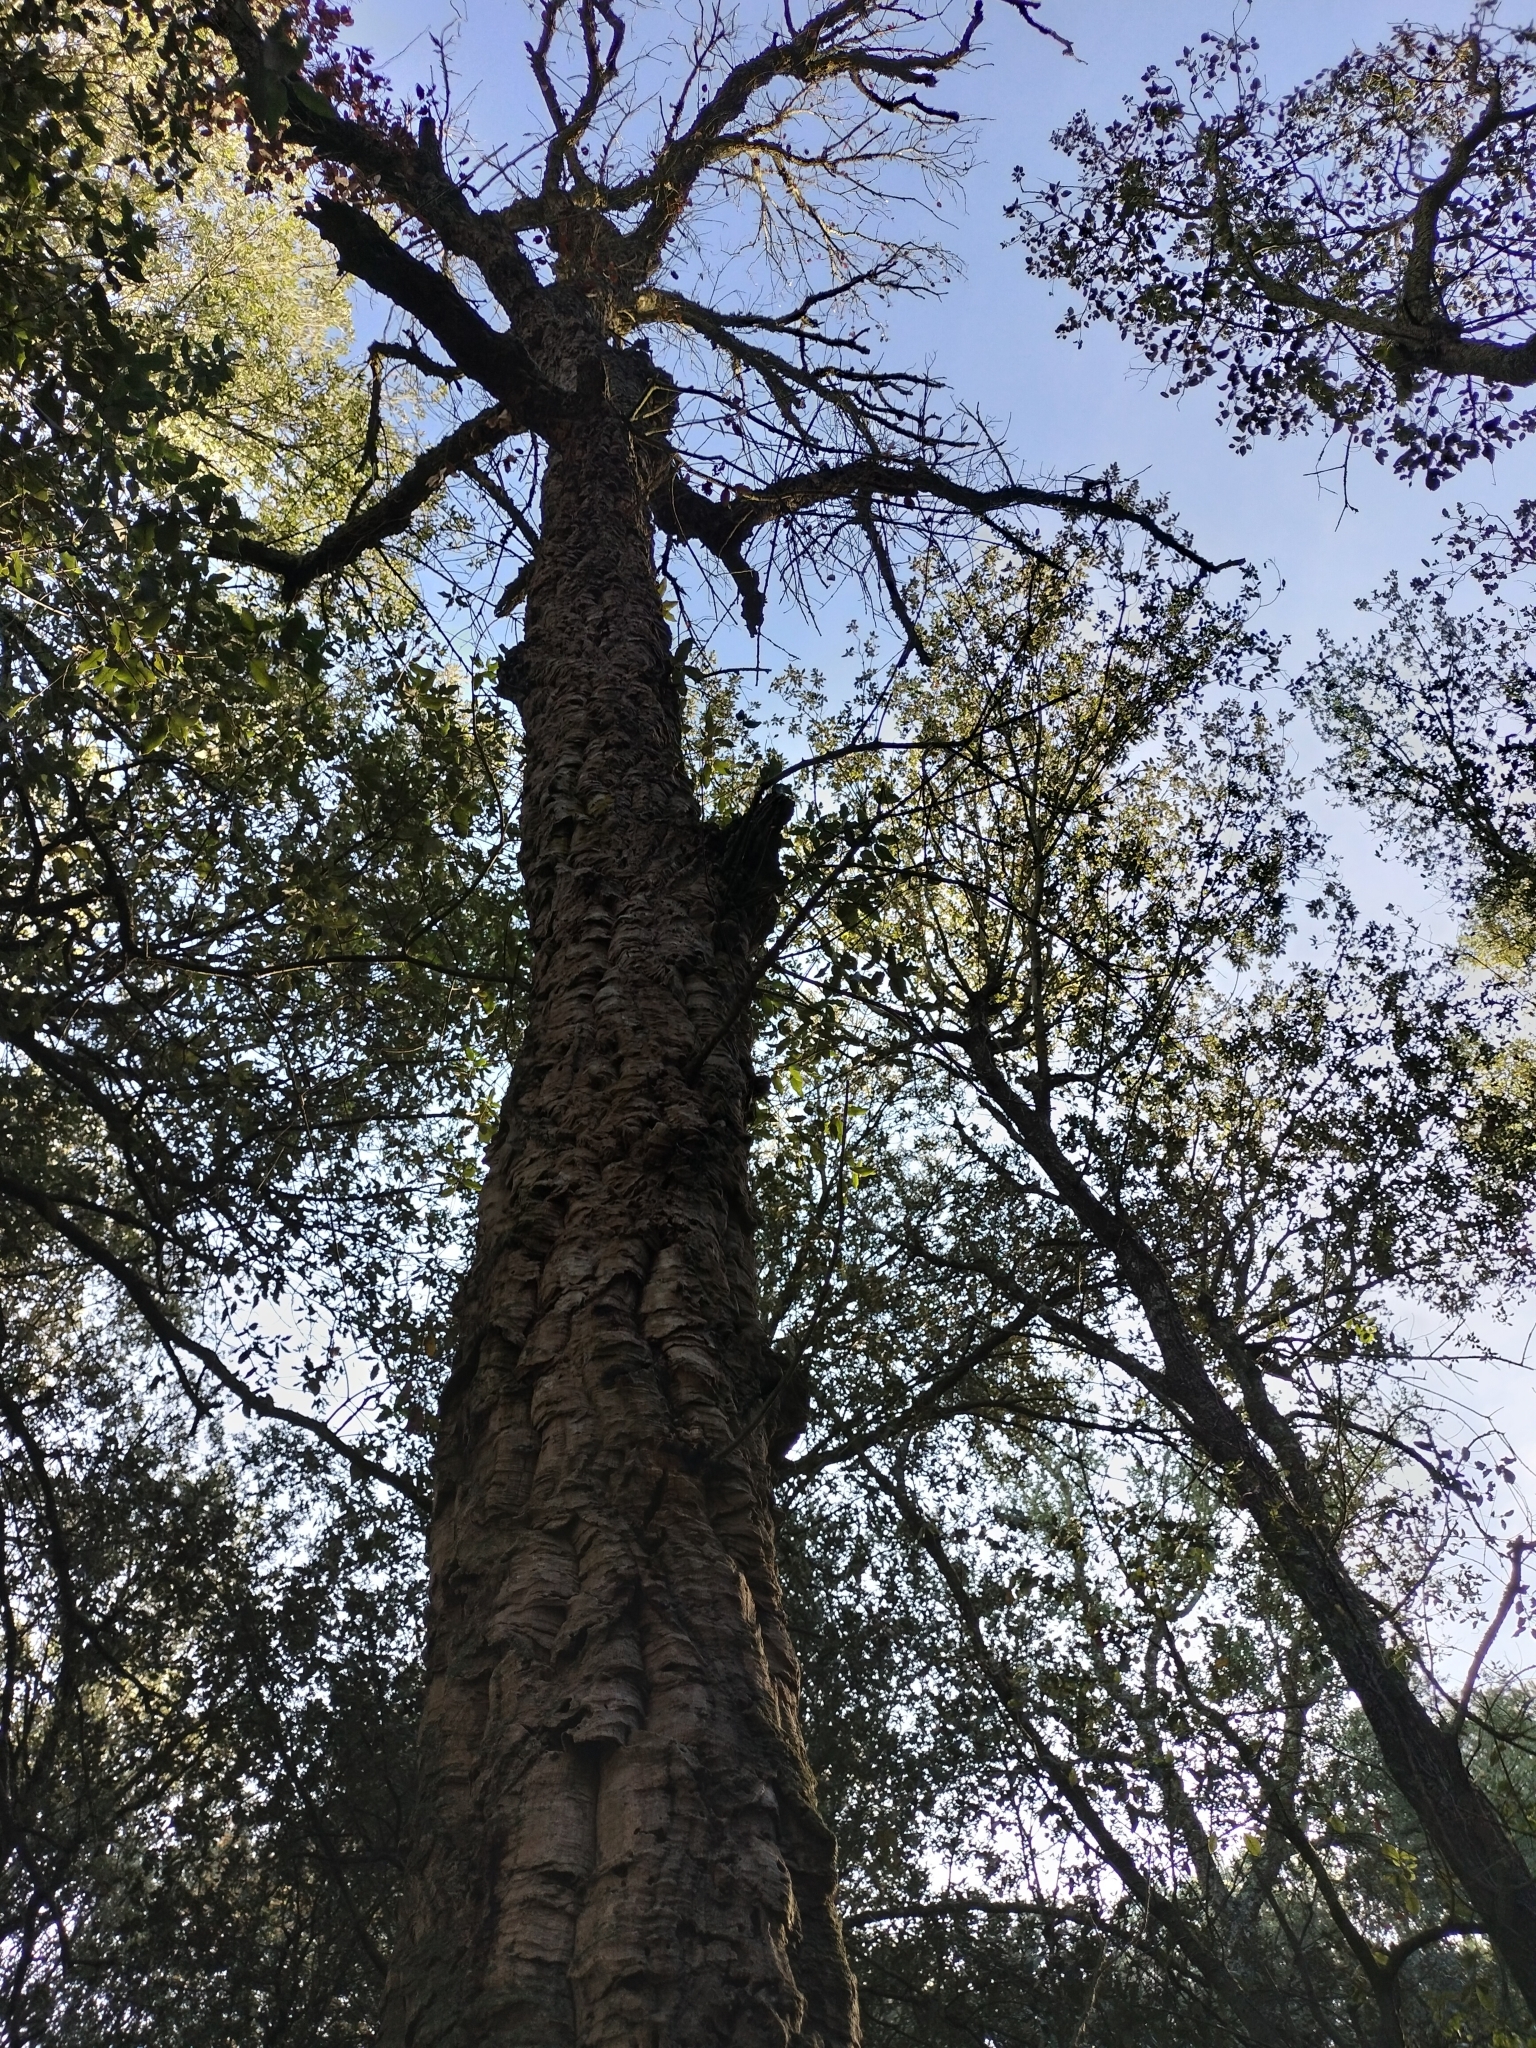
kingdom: Plantae
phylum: Tracheophyta
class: Magnoliopsida
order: Fagales
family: Fagaceae
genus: Quercus
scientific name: Quercus suber
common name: Cork oak
